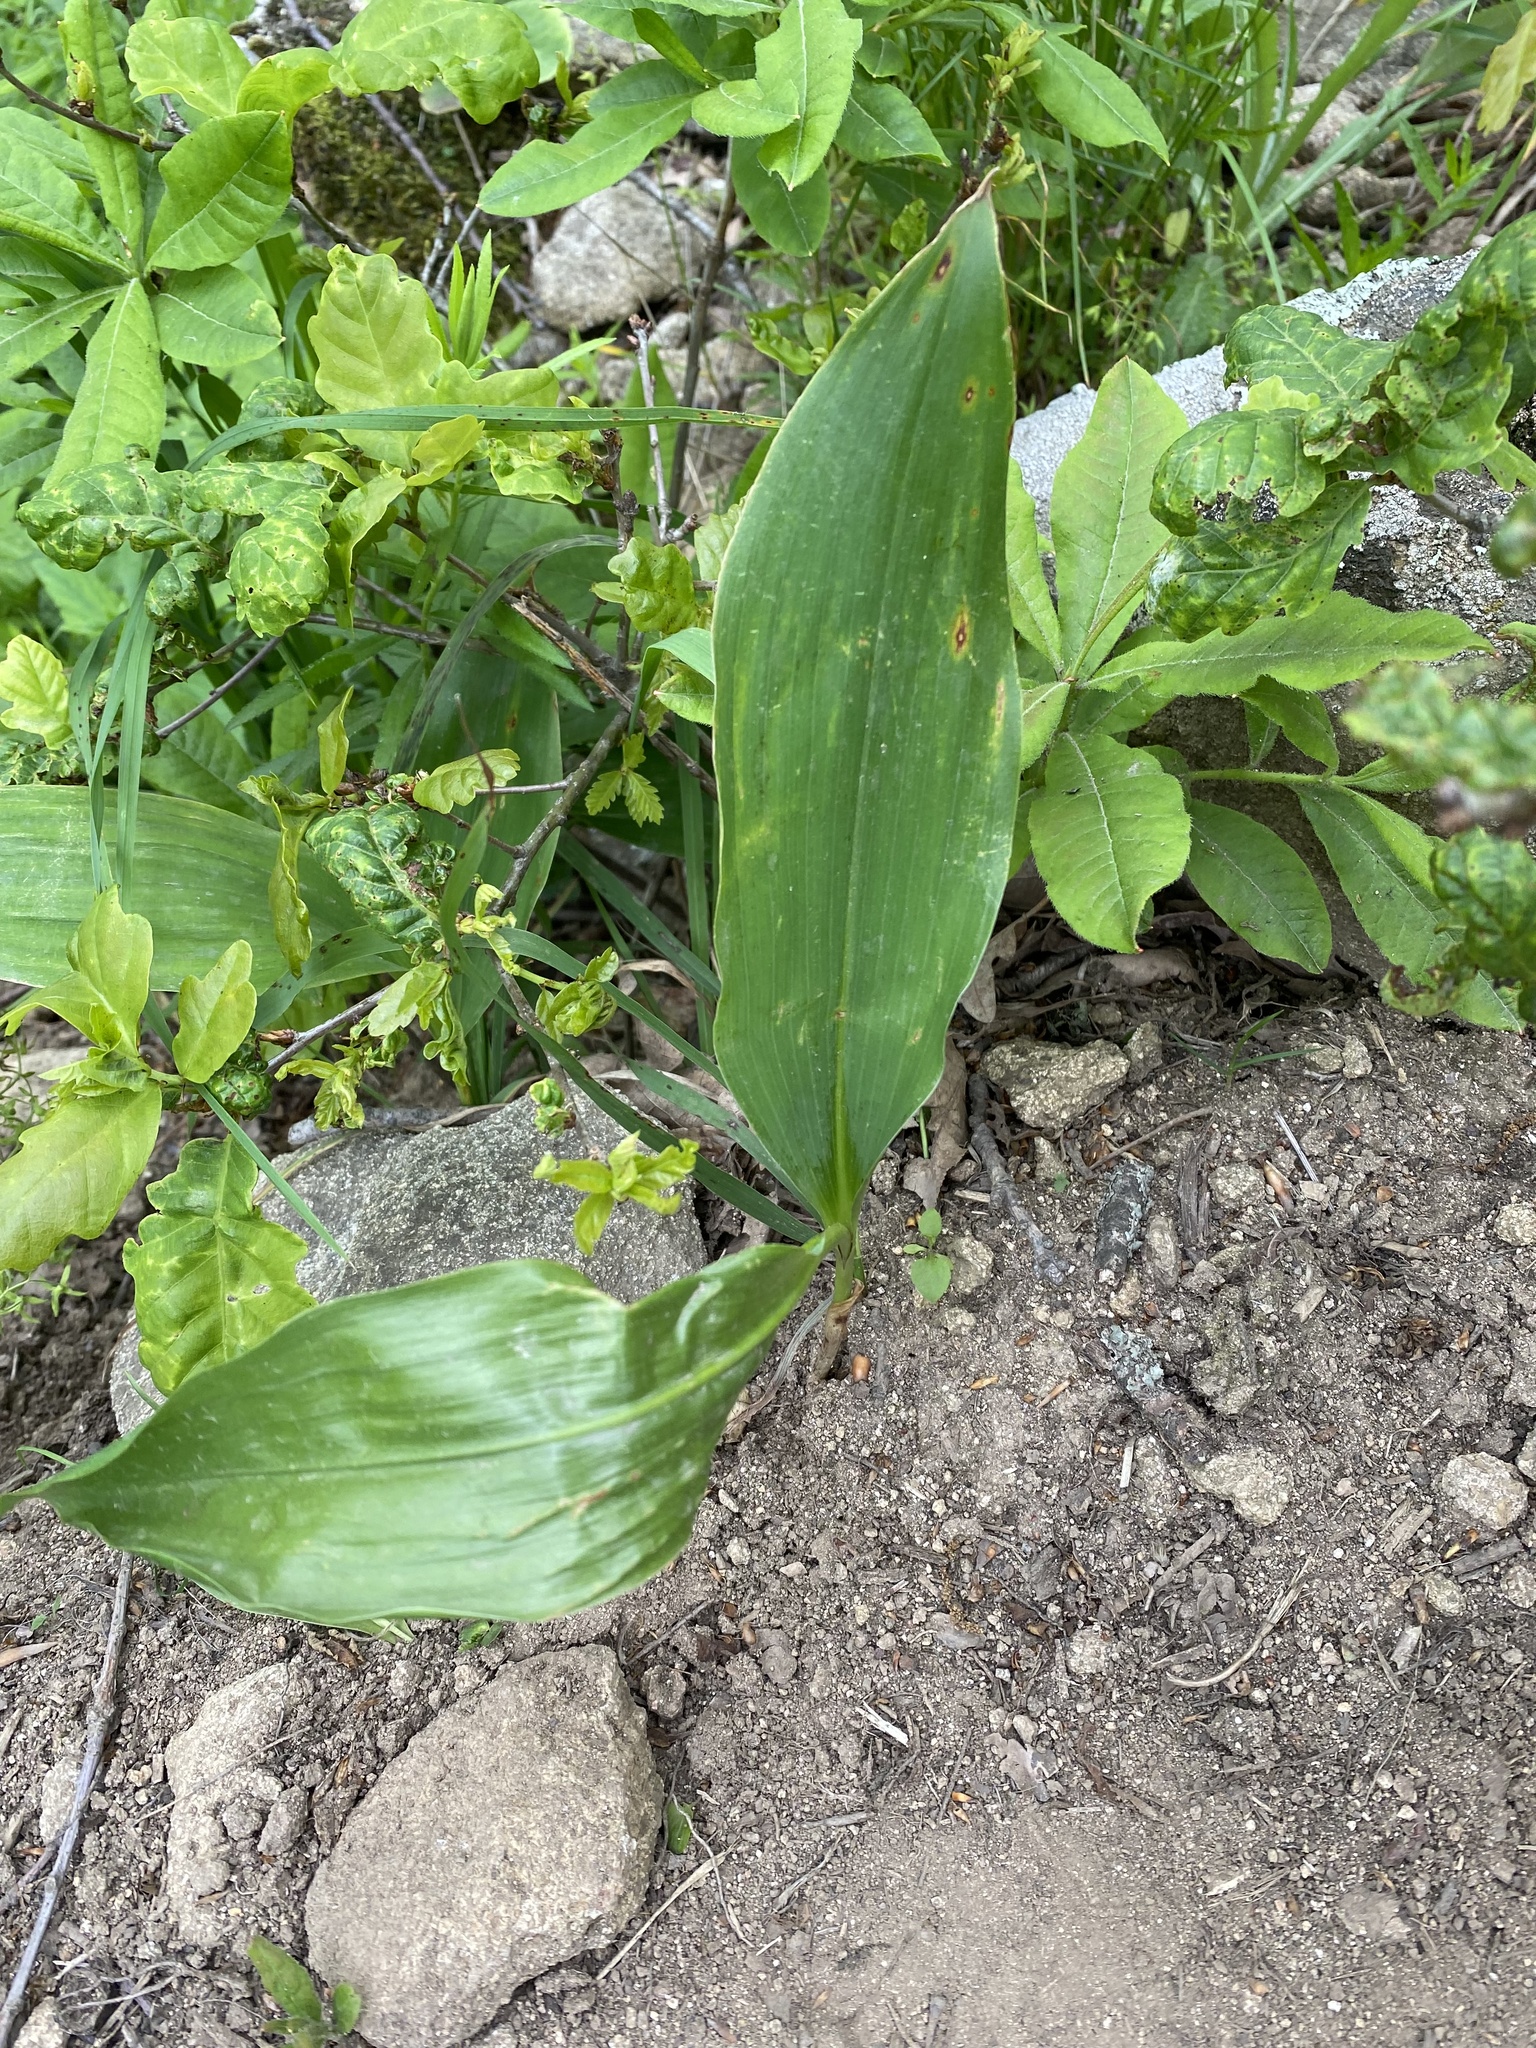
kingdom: Plantae
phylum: Tracheophyta
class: Liliopsida
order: Asparagales
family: Asparagaceae
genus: Convallaria
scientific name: Convallaria majalis
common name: Lily-of-the-valley
